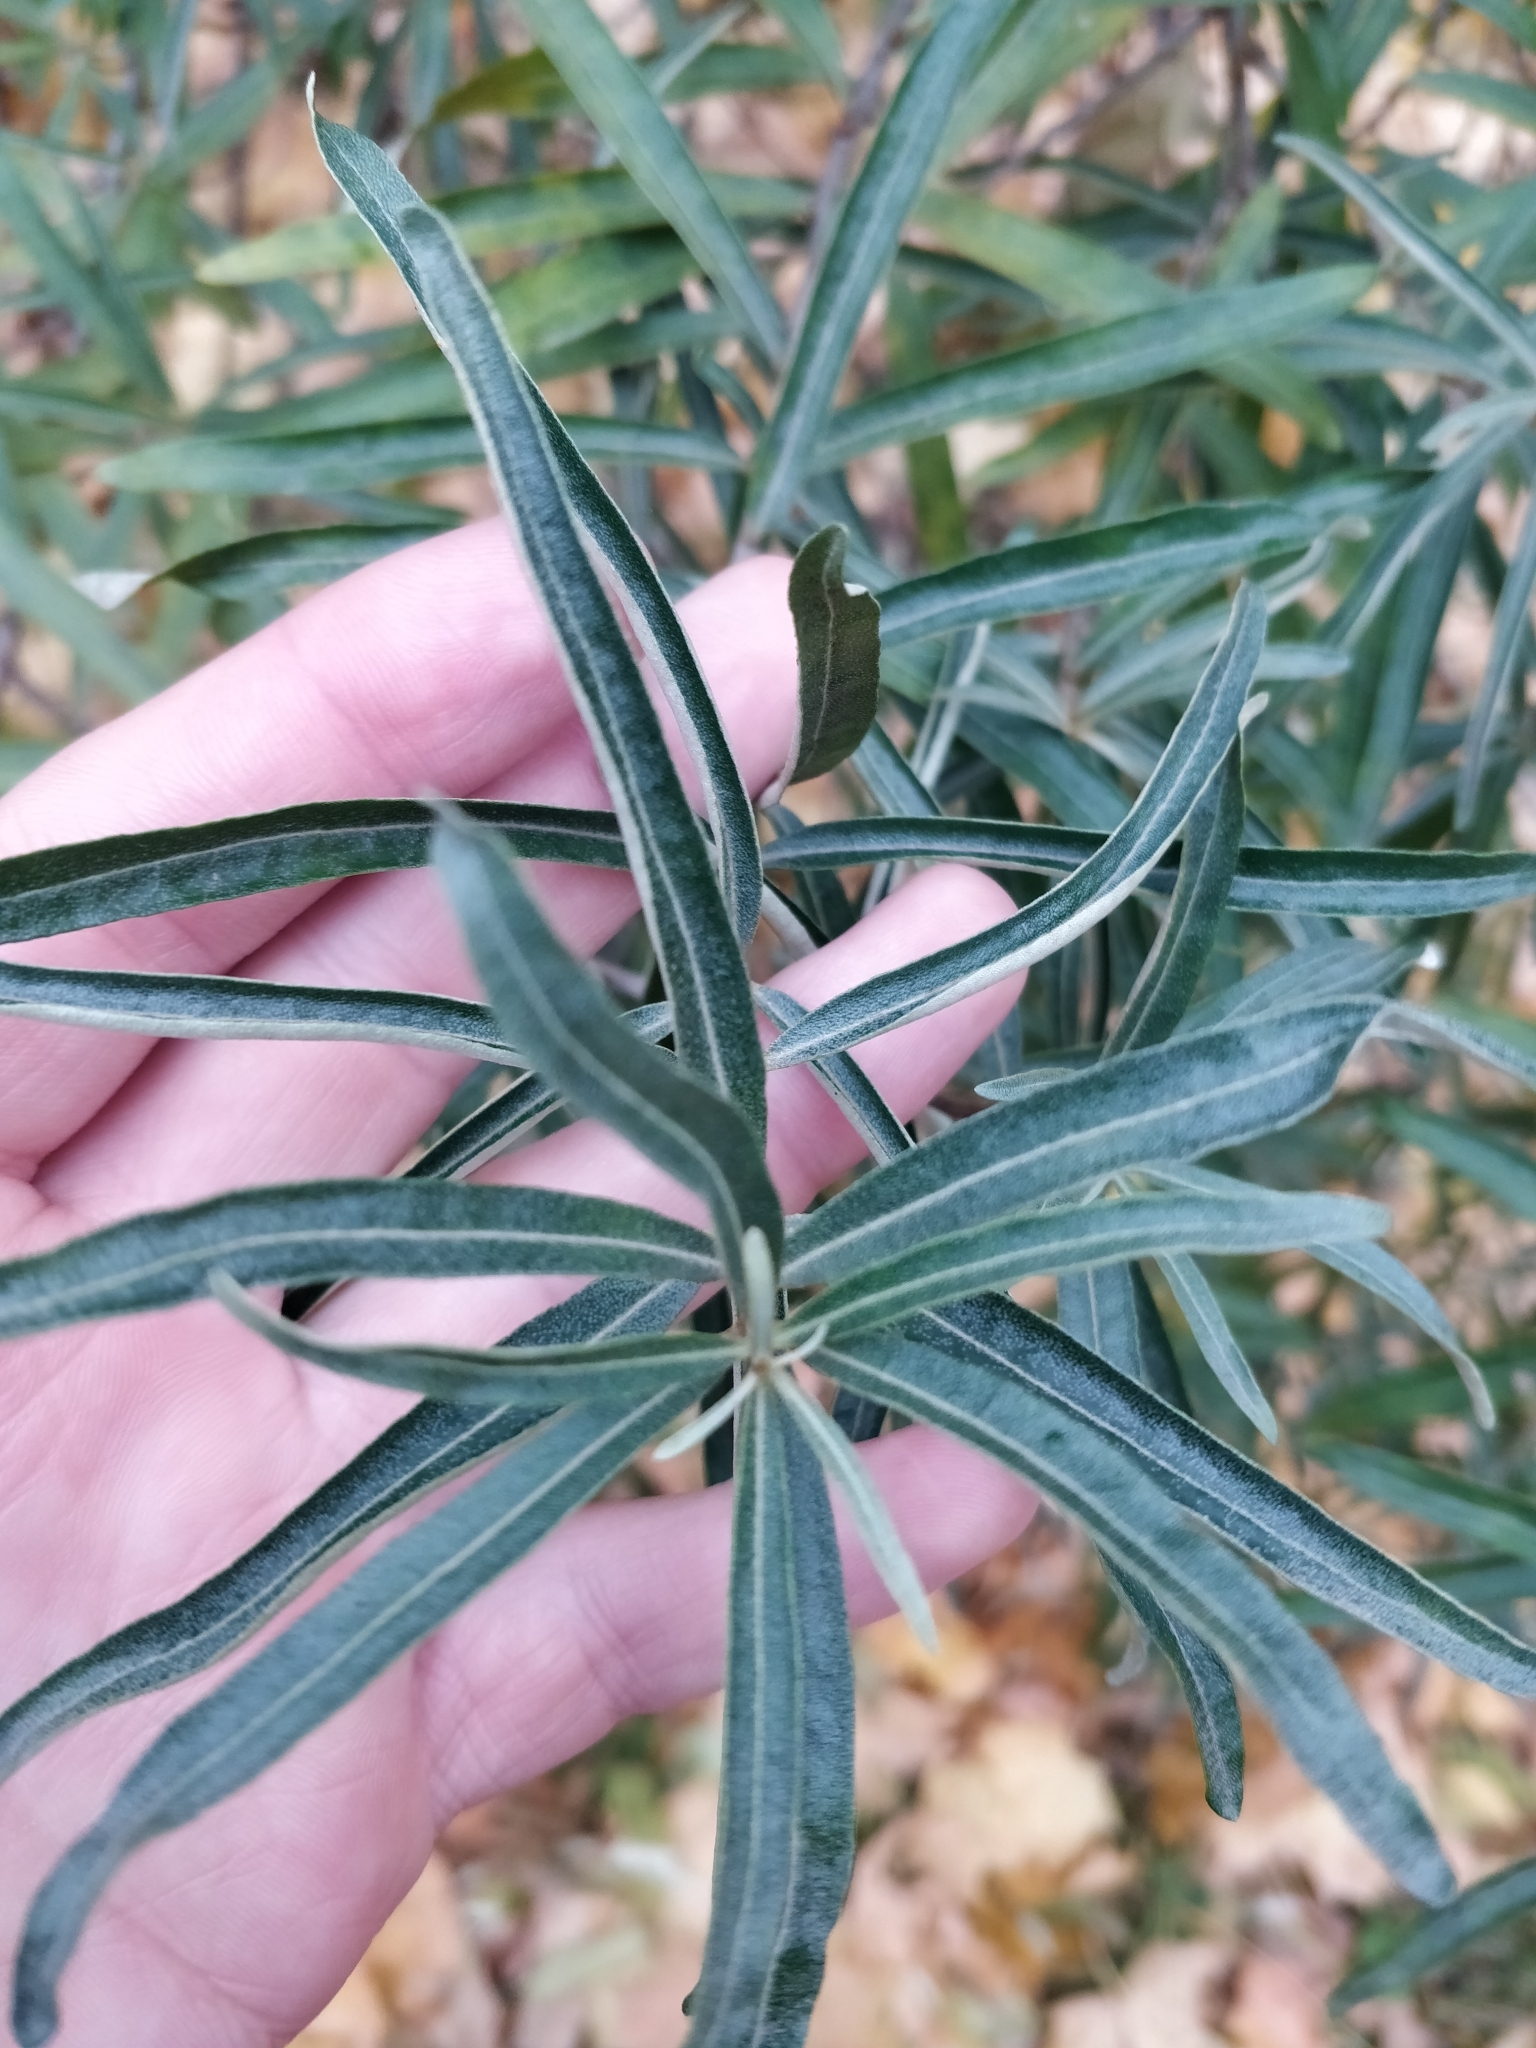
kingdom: Plantae
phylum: Tracheophyta
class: Magnoliopsida
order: Rosales
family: Elaeagnaceae
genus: Hippophae
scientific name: Hippophae rhamnoides
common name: Sea-buckthorn
